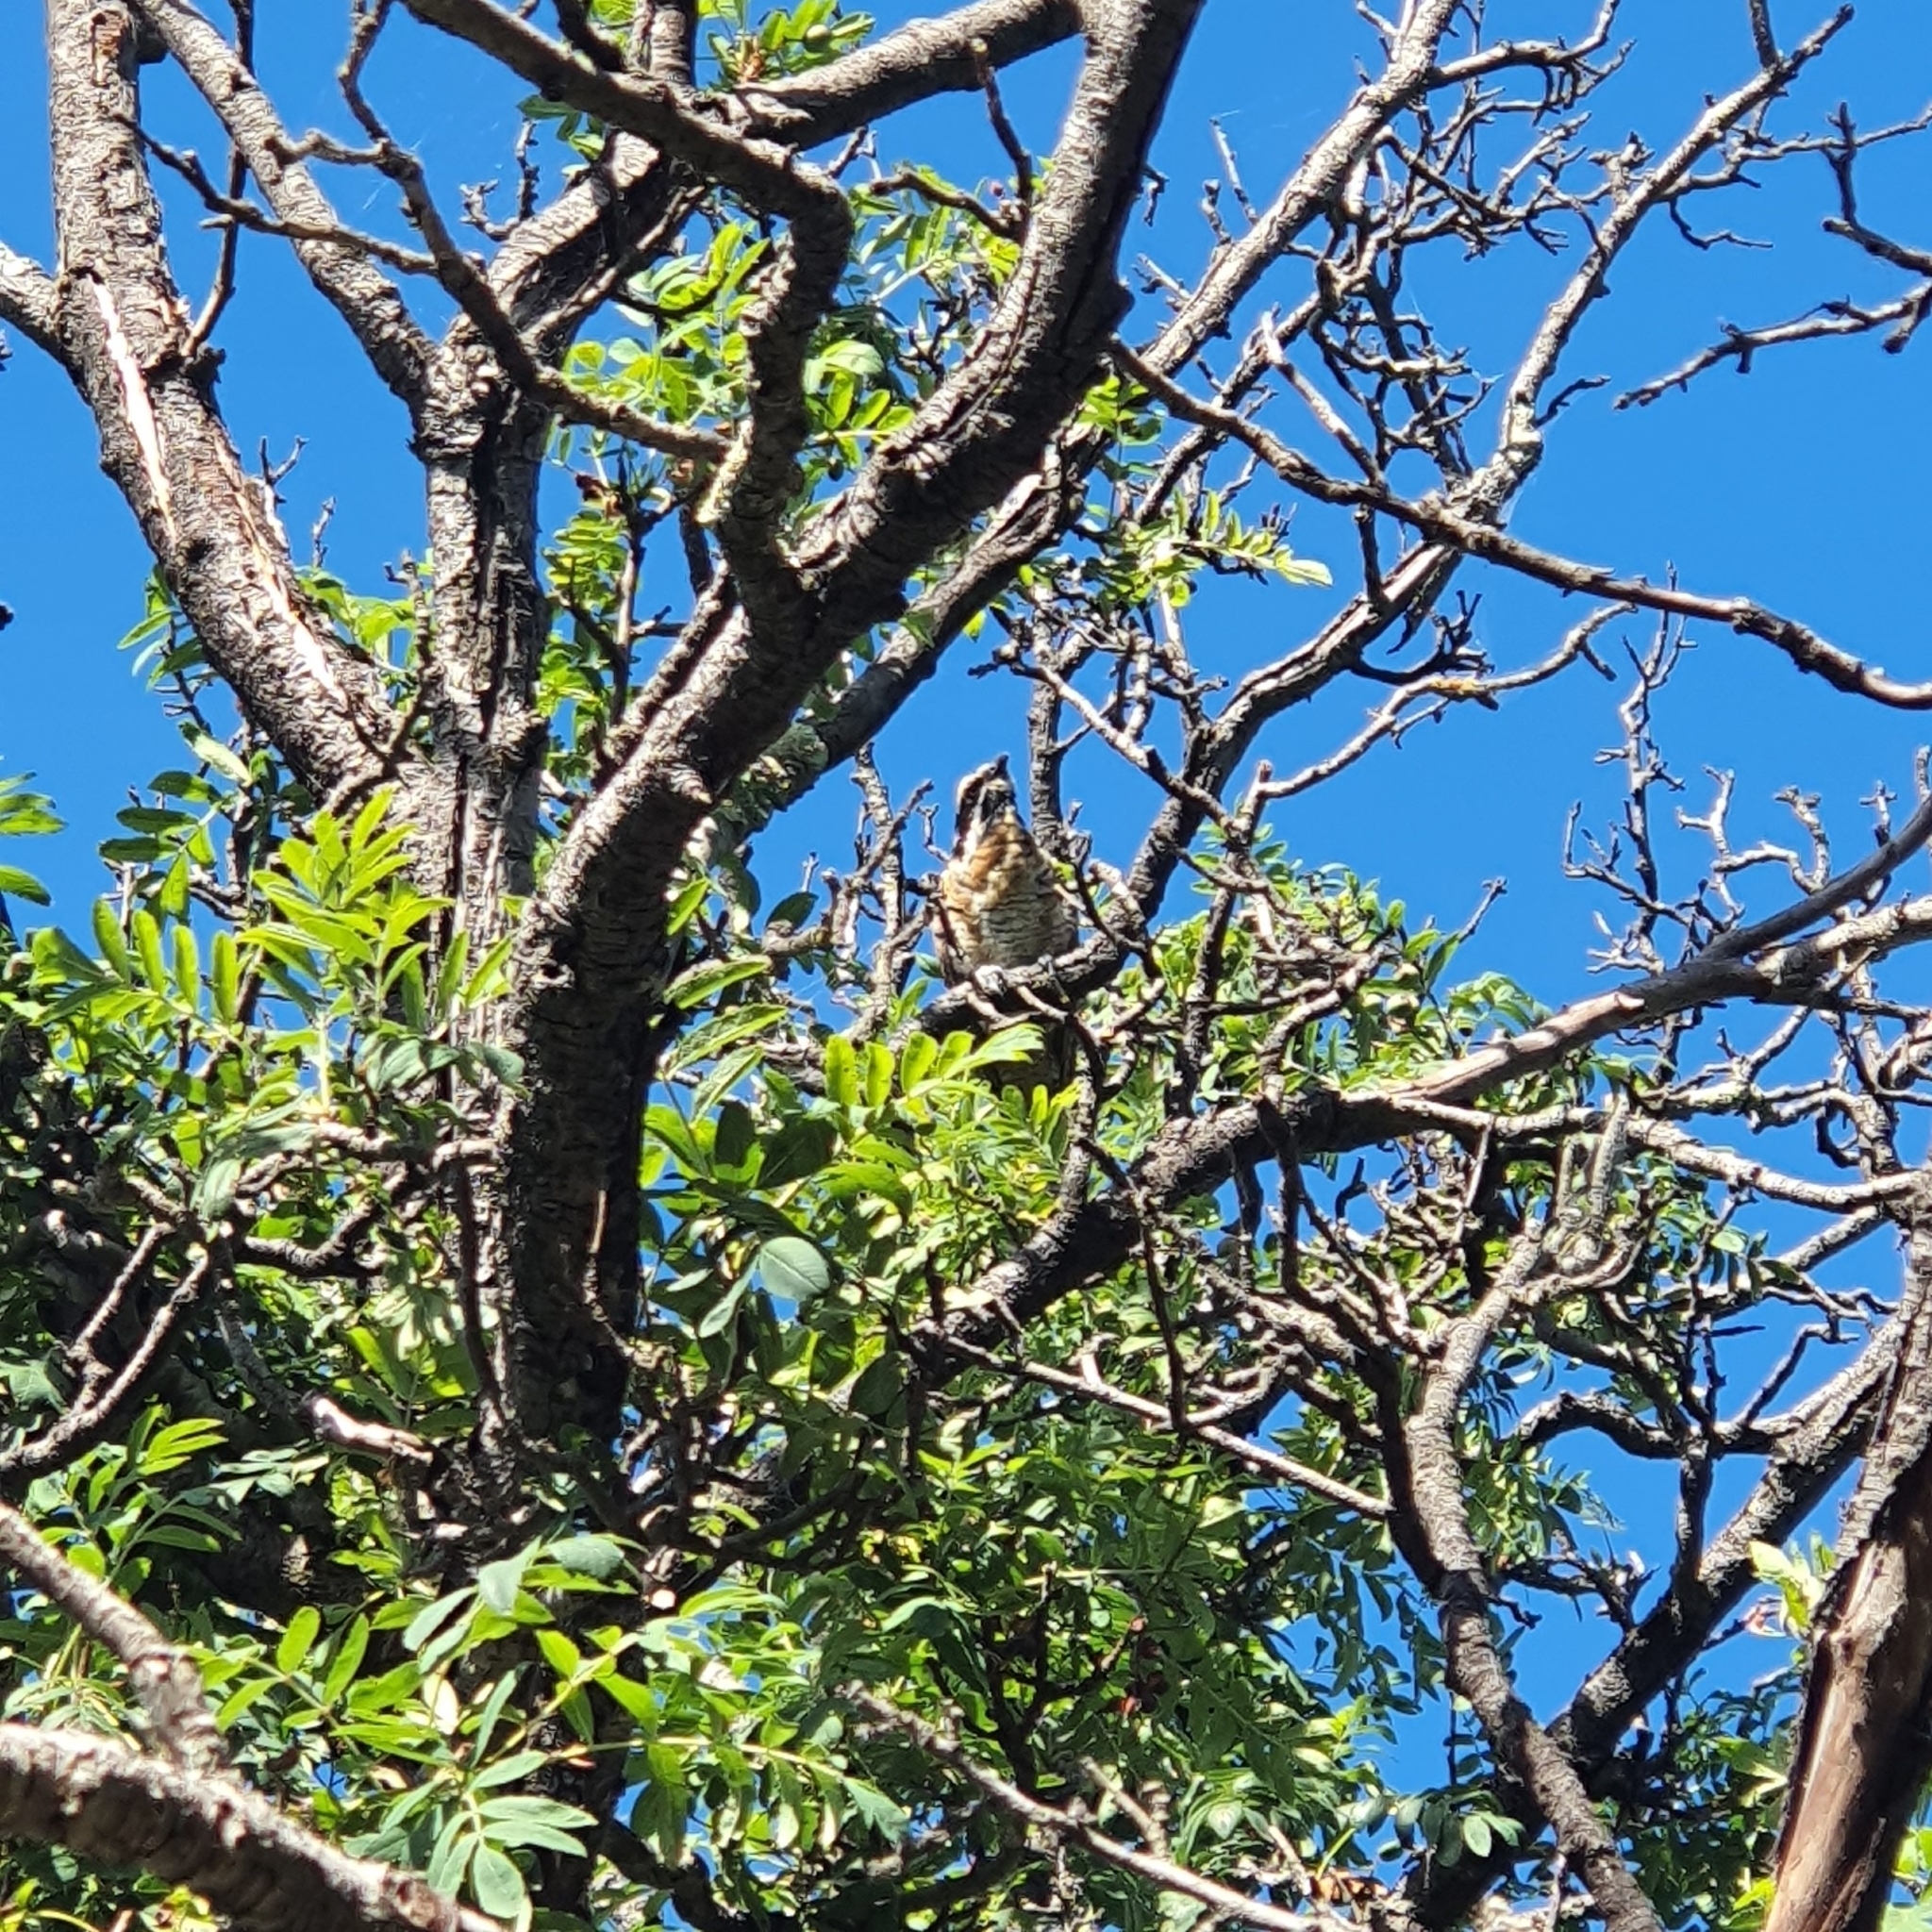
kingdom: Animalia
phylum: Chordata
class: Aves
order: Cuculiformes
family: Cuculidae
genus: Eudynamys
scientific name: Eudynamys orientalis
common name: Pacific koel
